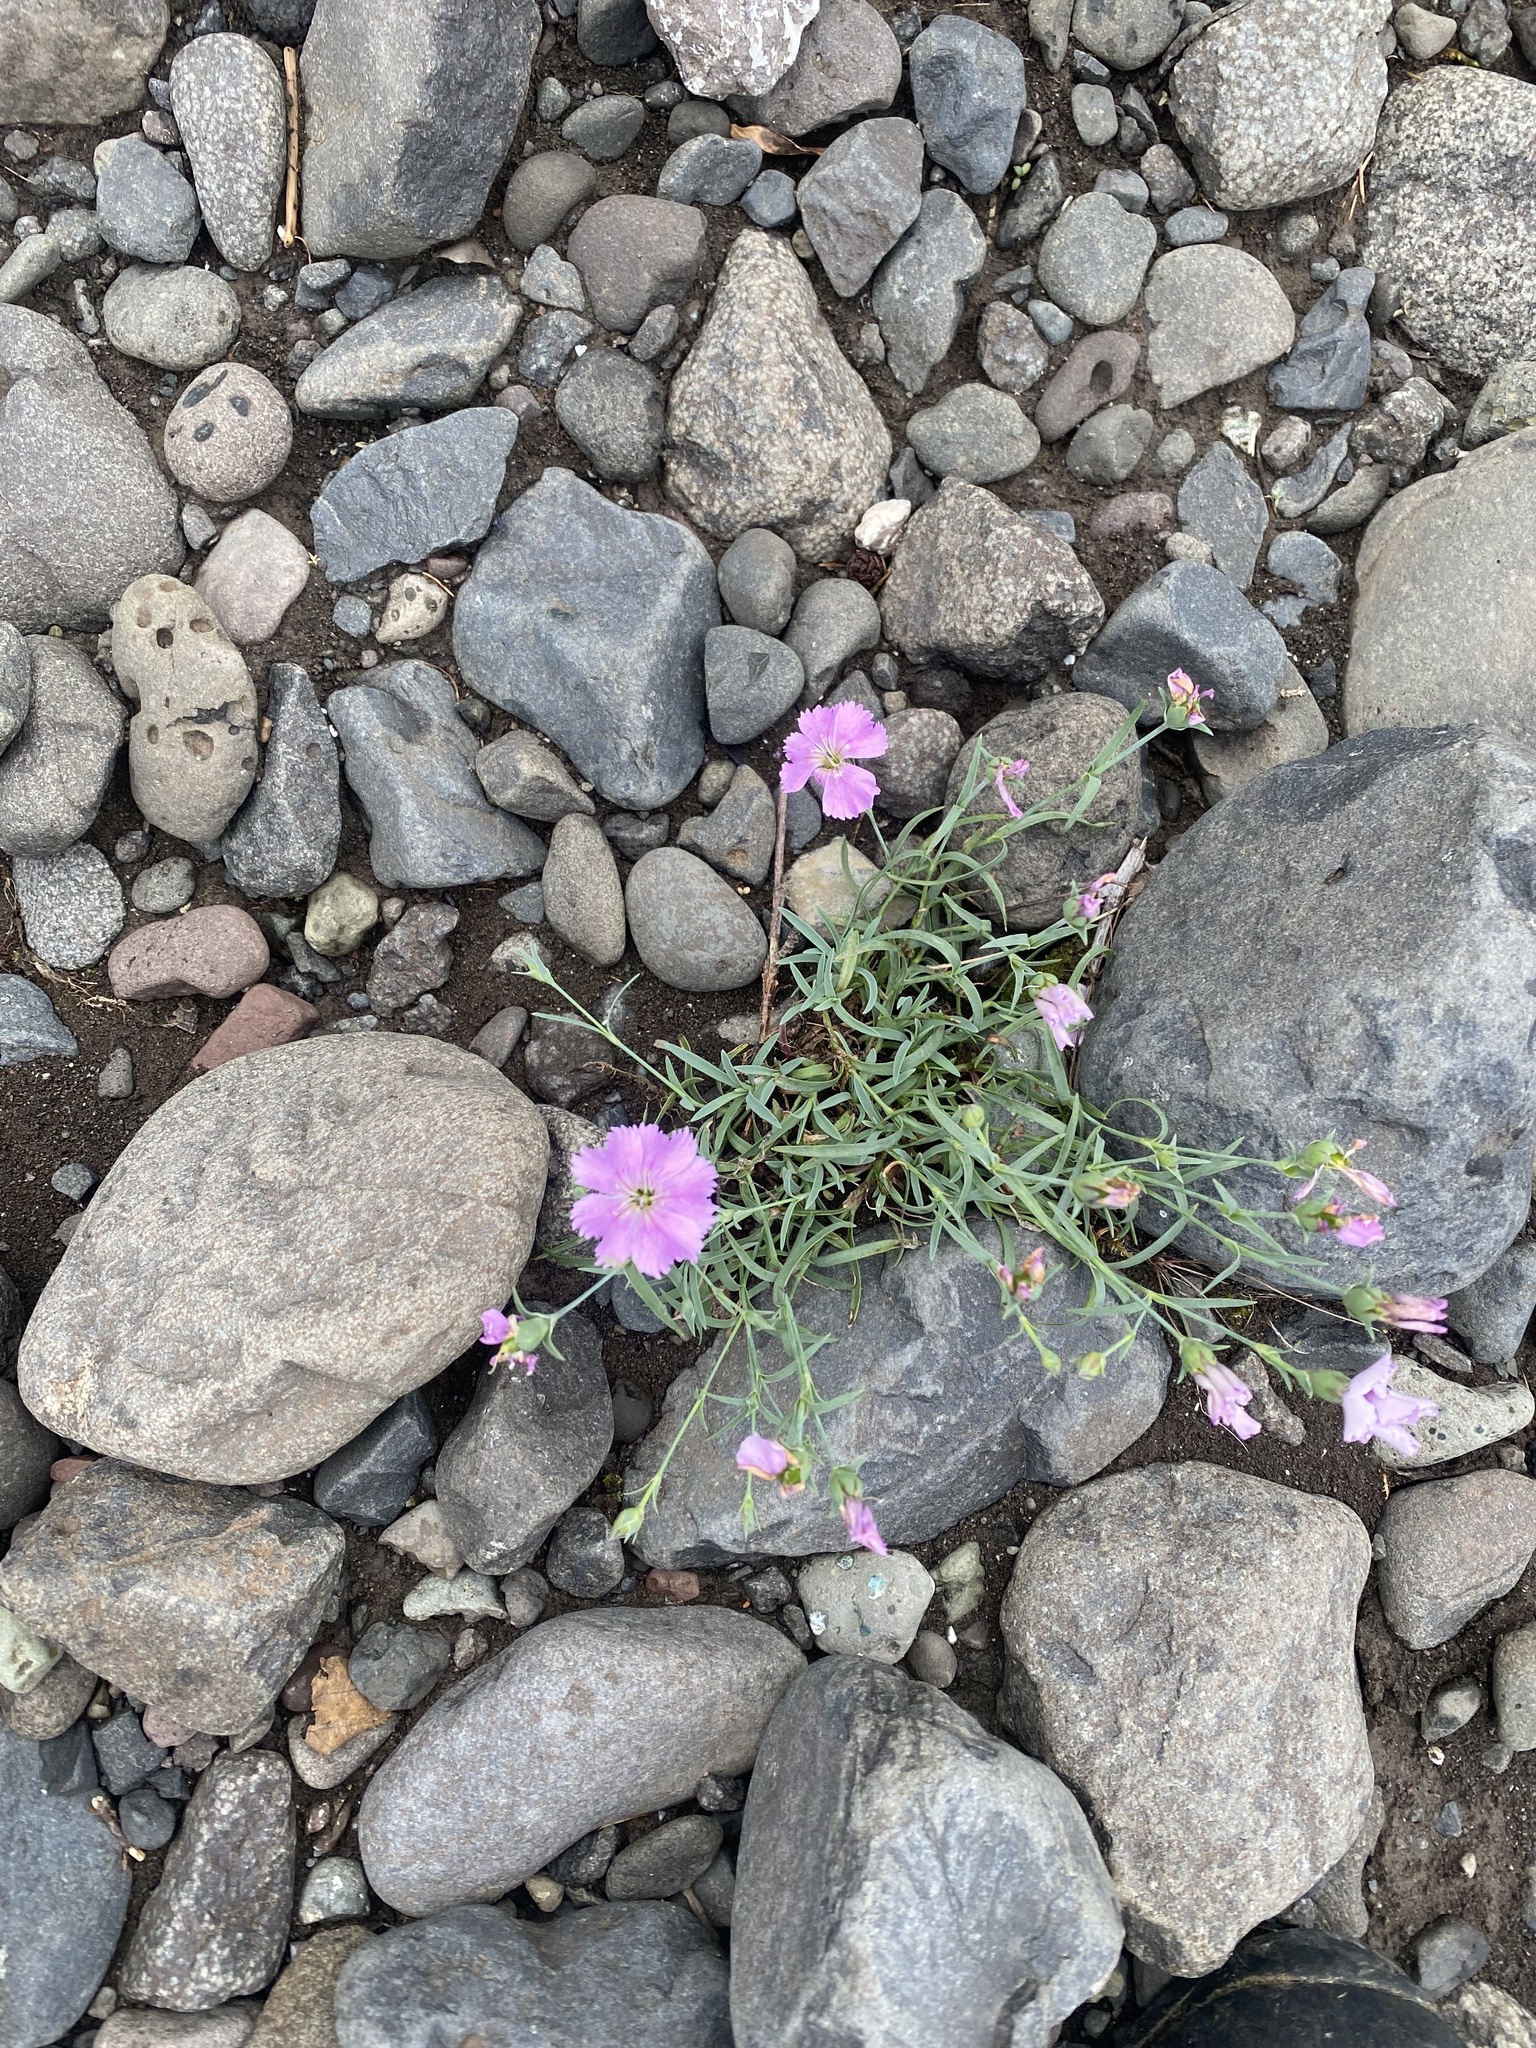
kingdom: Plantae
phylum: Tracheophyta
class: Magnoliopsida
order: Caryophyllales
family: Caryophyllaceae
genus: Dianthus
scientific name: Dianthus repens
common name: Northern pink
